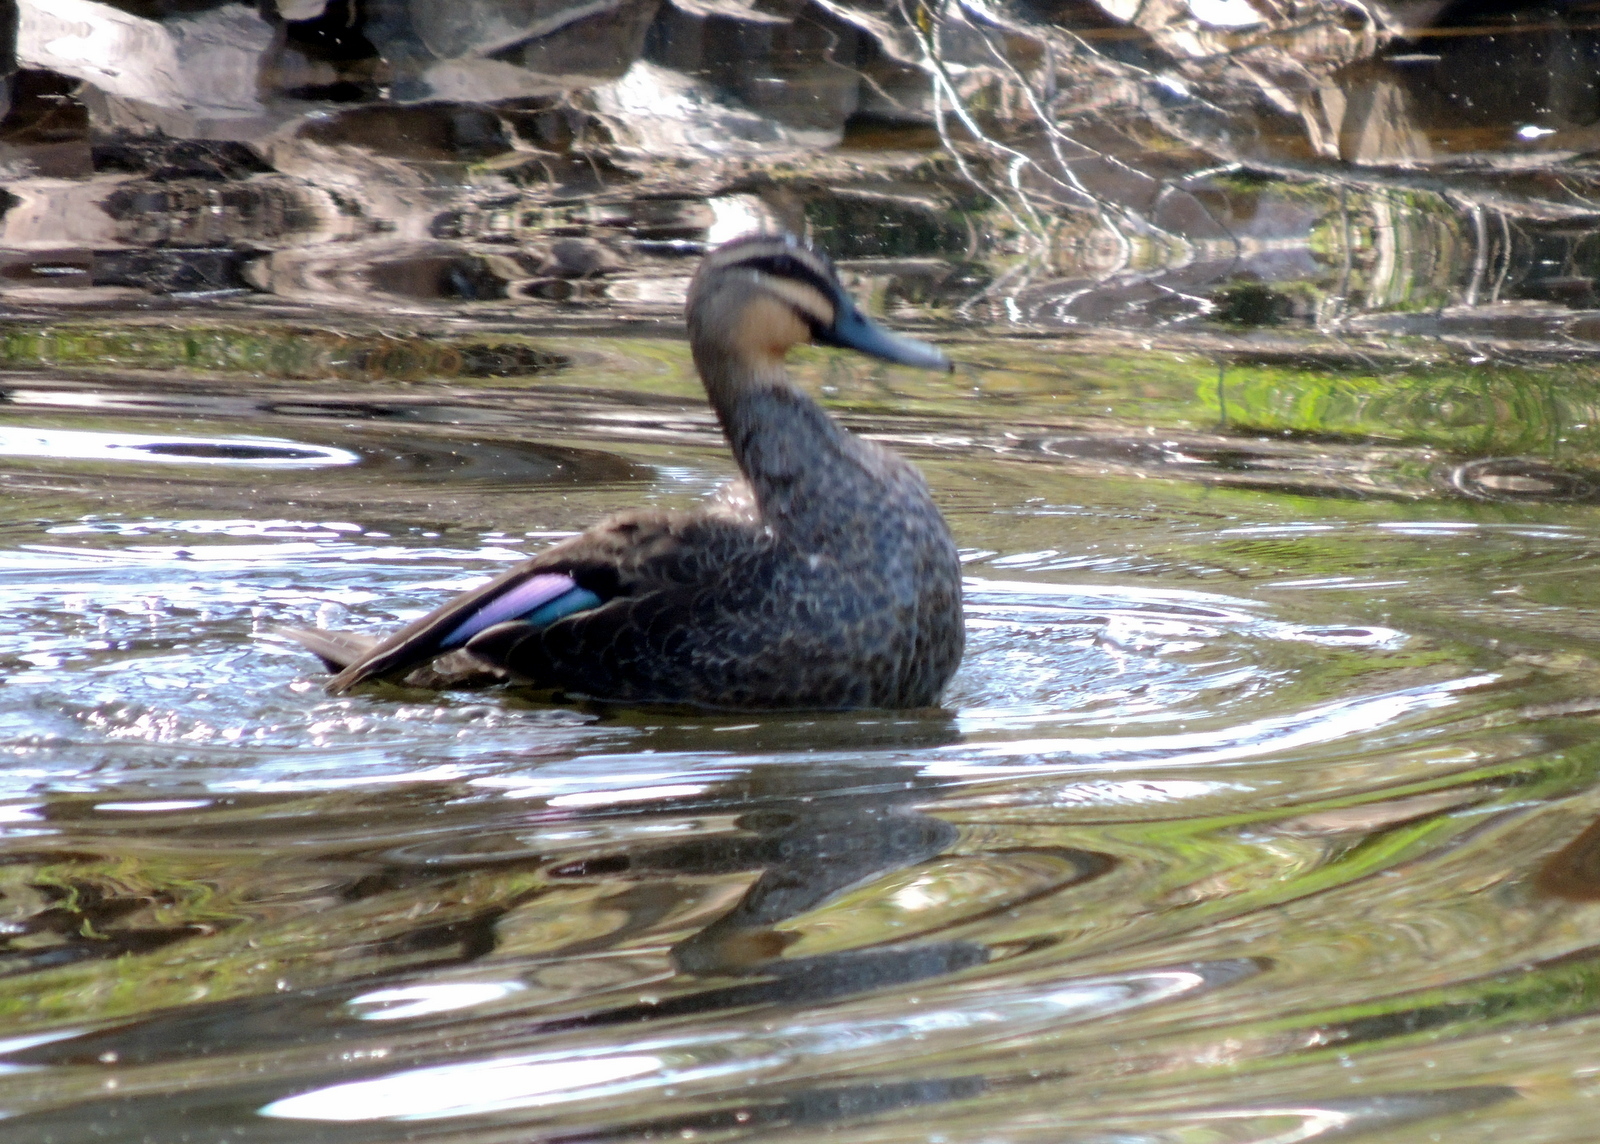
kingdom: Animalia
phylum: Chordata
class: Aves
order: Anseriformes
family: Anatidae
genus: Anas
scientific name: Anas superciliosa
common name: Pacific black duck
